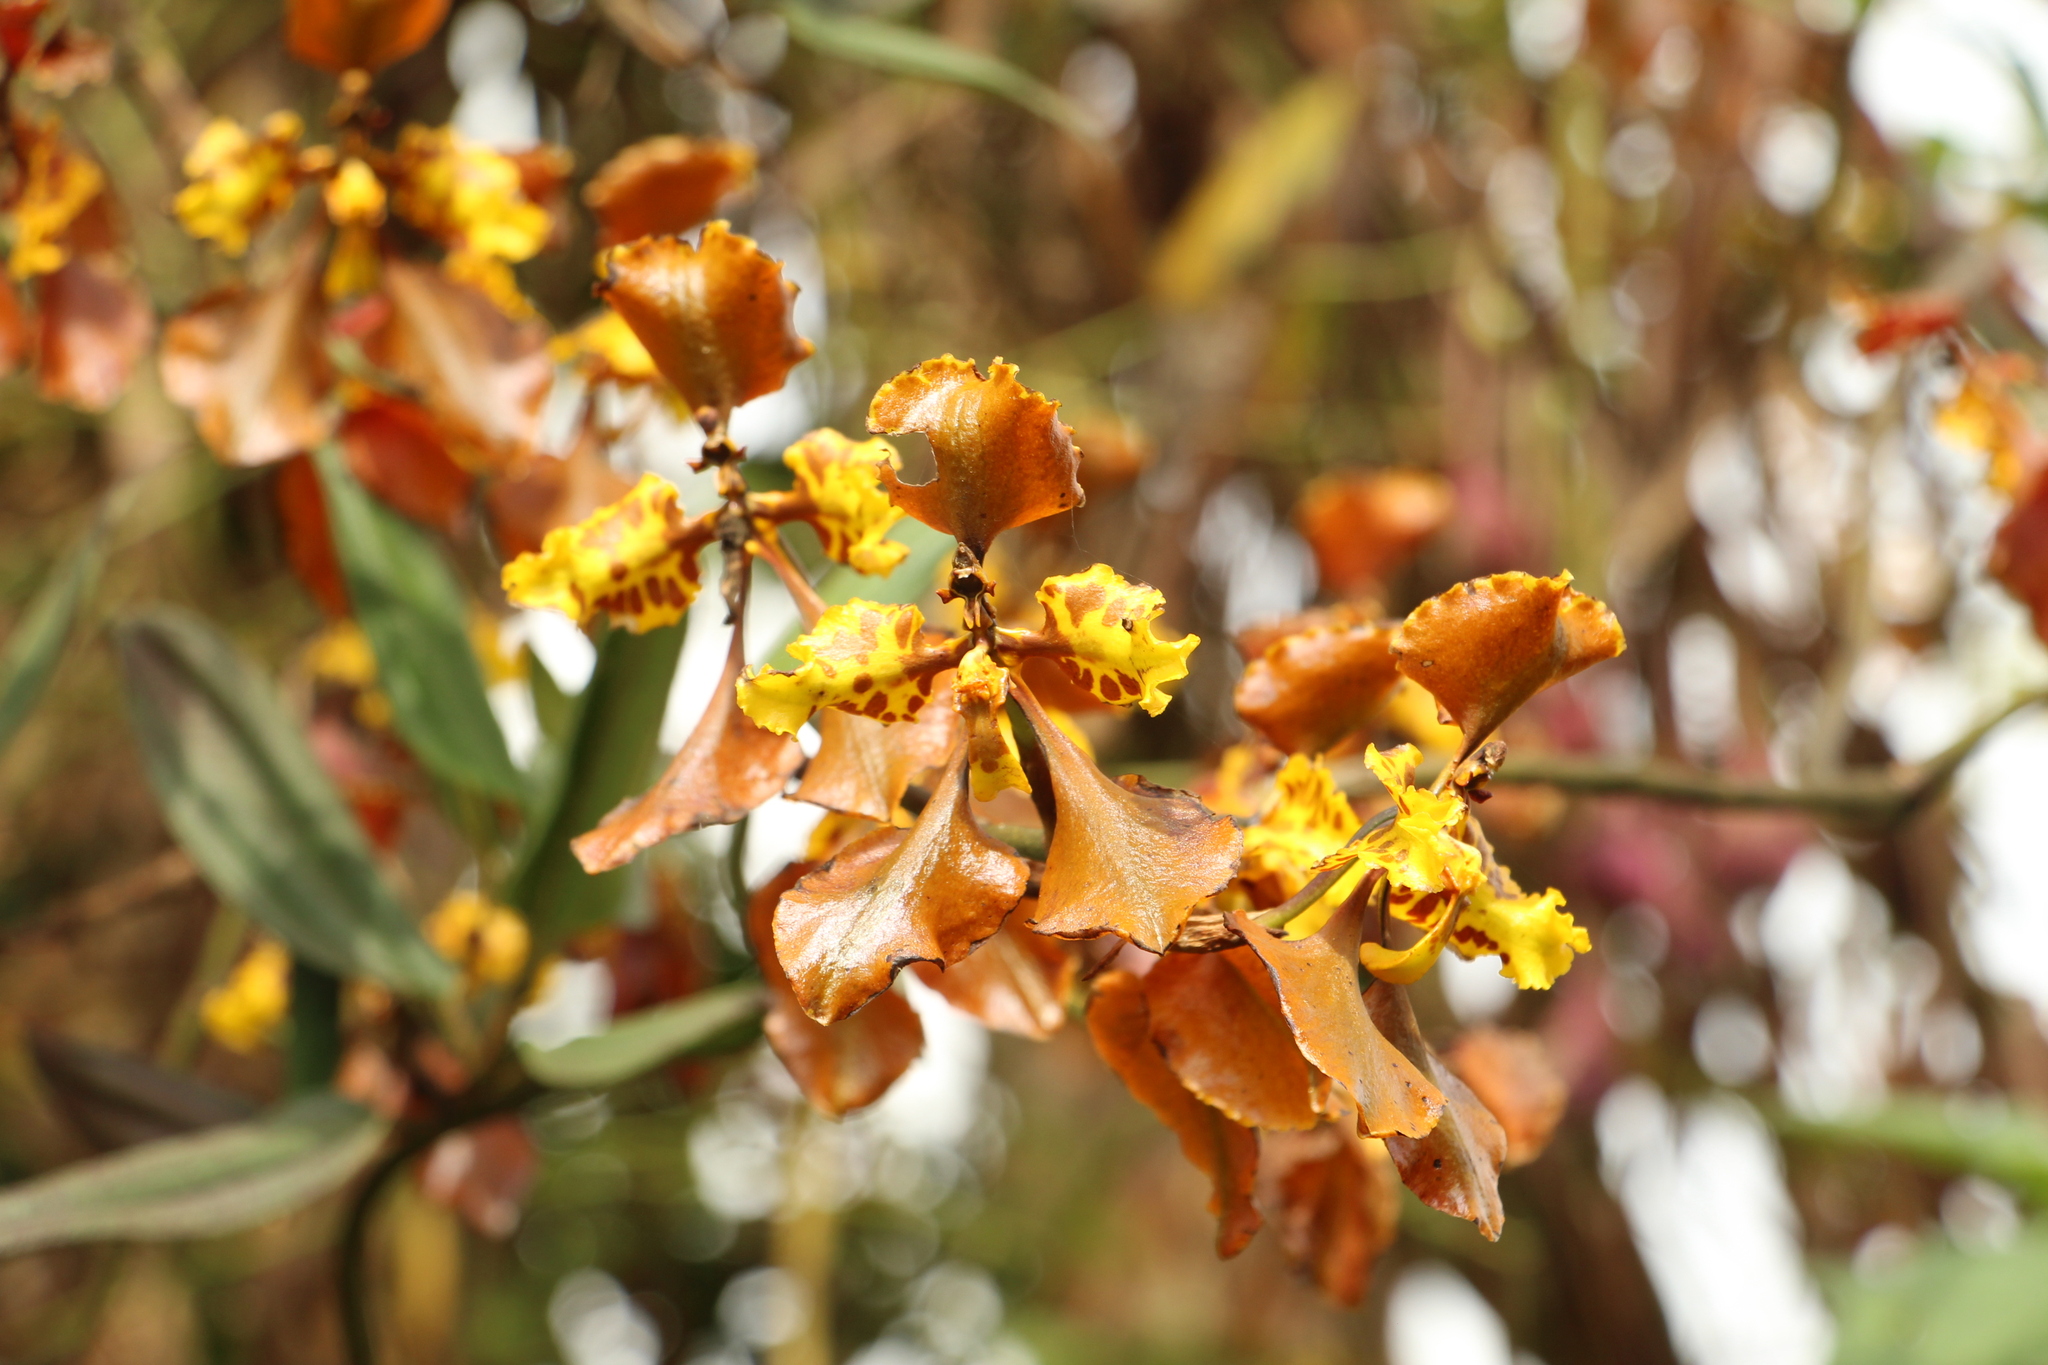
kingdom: Plantae
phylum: Tracheophyta
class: Liliopsida
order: Asparagales
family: Orchidaceae
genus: Cyrtochilum
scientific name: Cyrtochilum tetracopis
